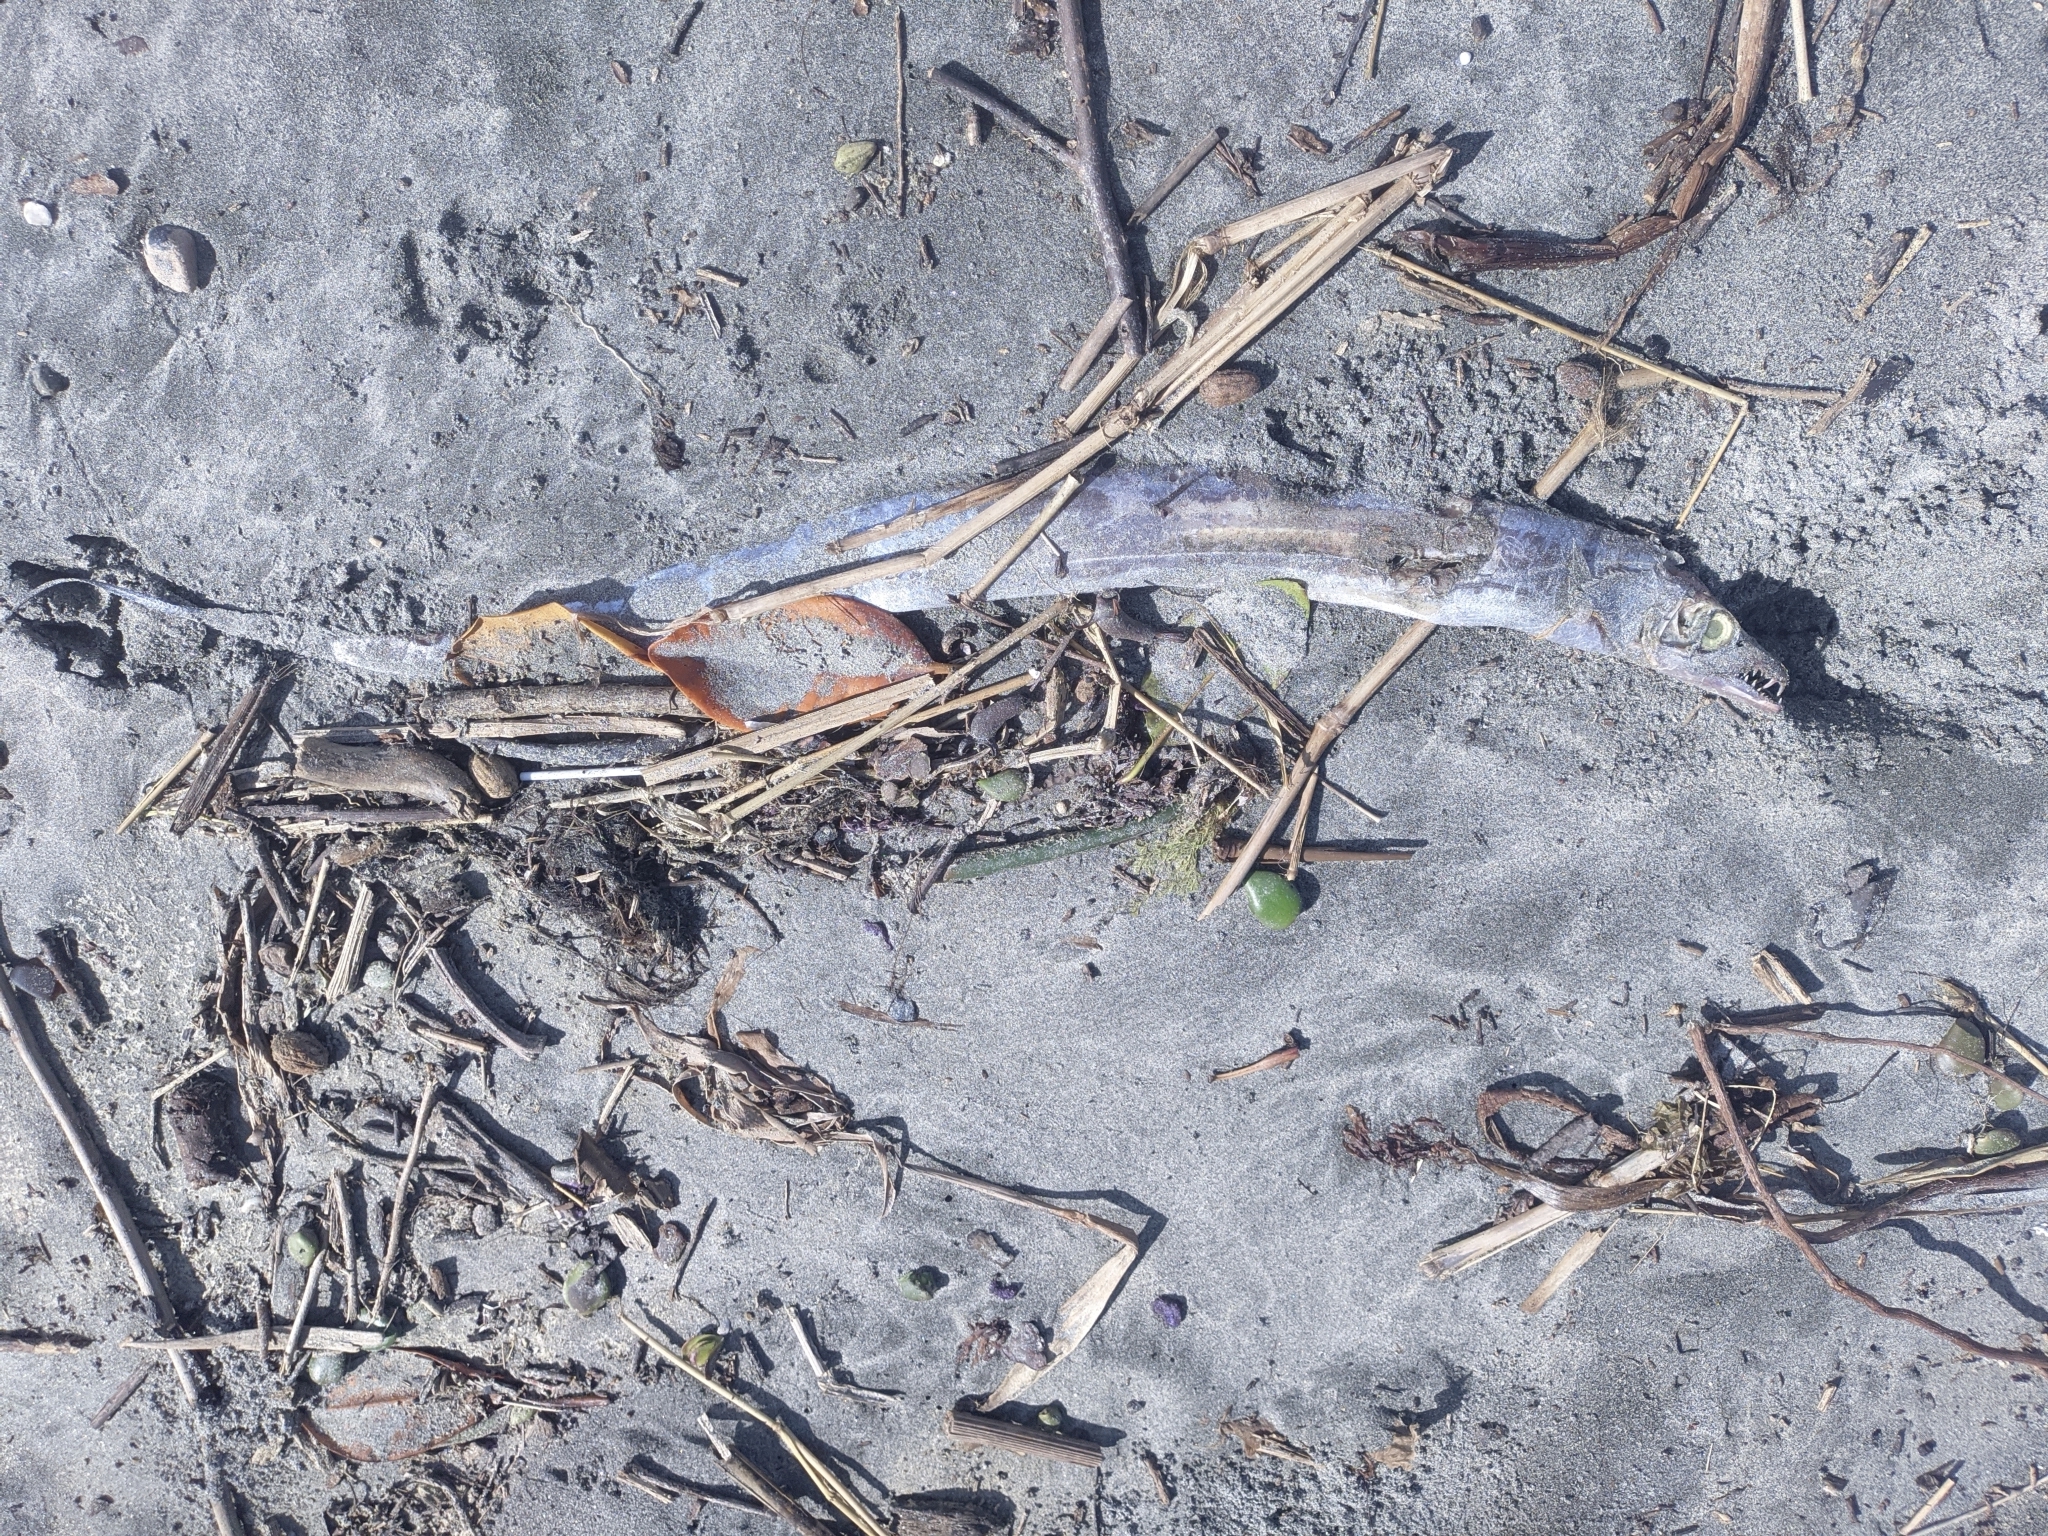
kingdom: Animalia
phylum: Chordata
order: Perciformes
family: Trichiuridae
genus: Trichiurus
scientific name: Trichiurus lepturus
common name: Largehead hairtail
